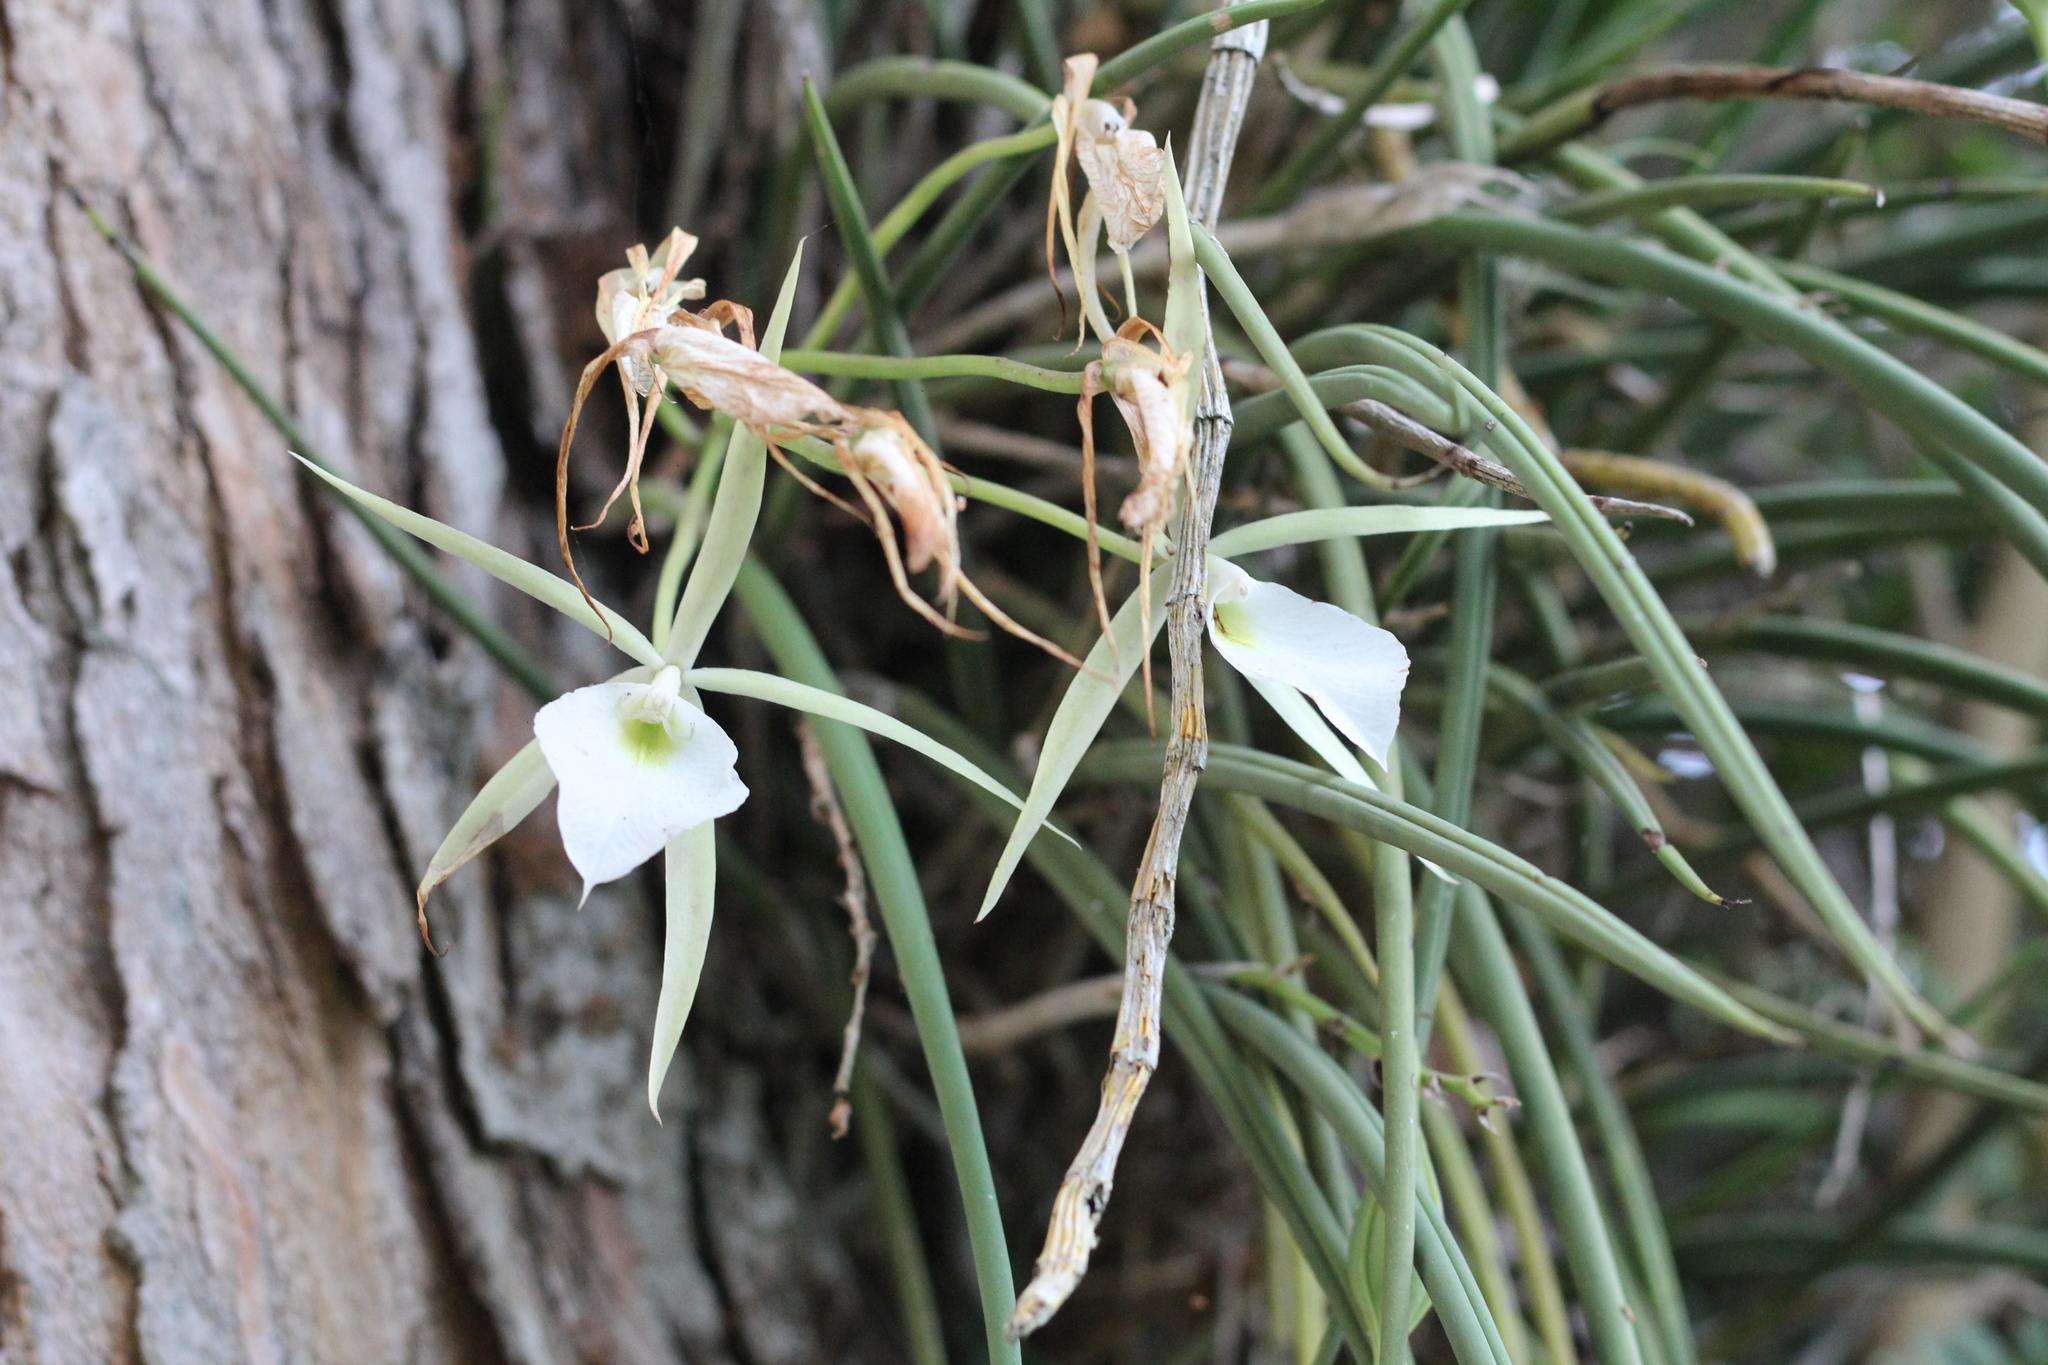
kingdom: Plantae
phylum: Tracheophyta
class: Liliopsida
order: Asparagales
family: Orchidaceae
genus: Brassavola
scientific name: Brassavola tuberculata
